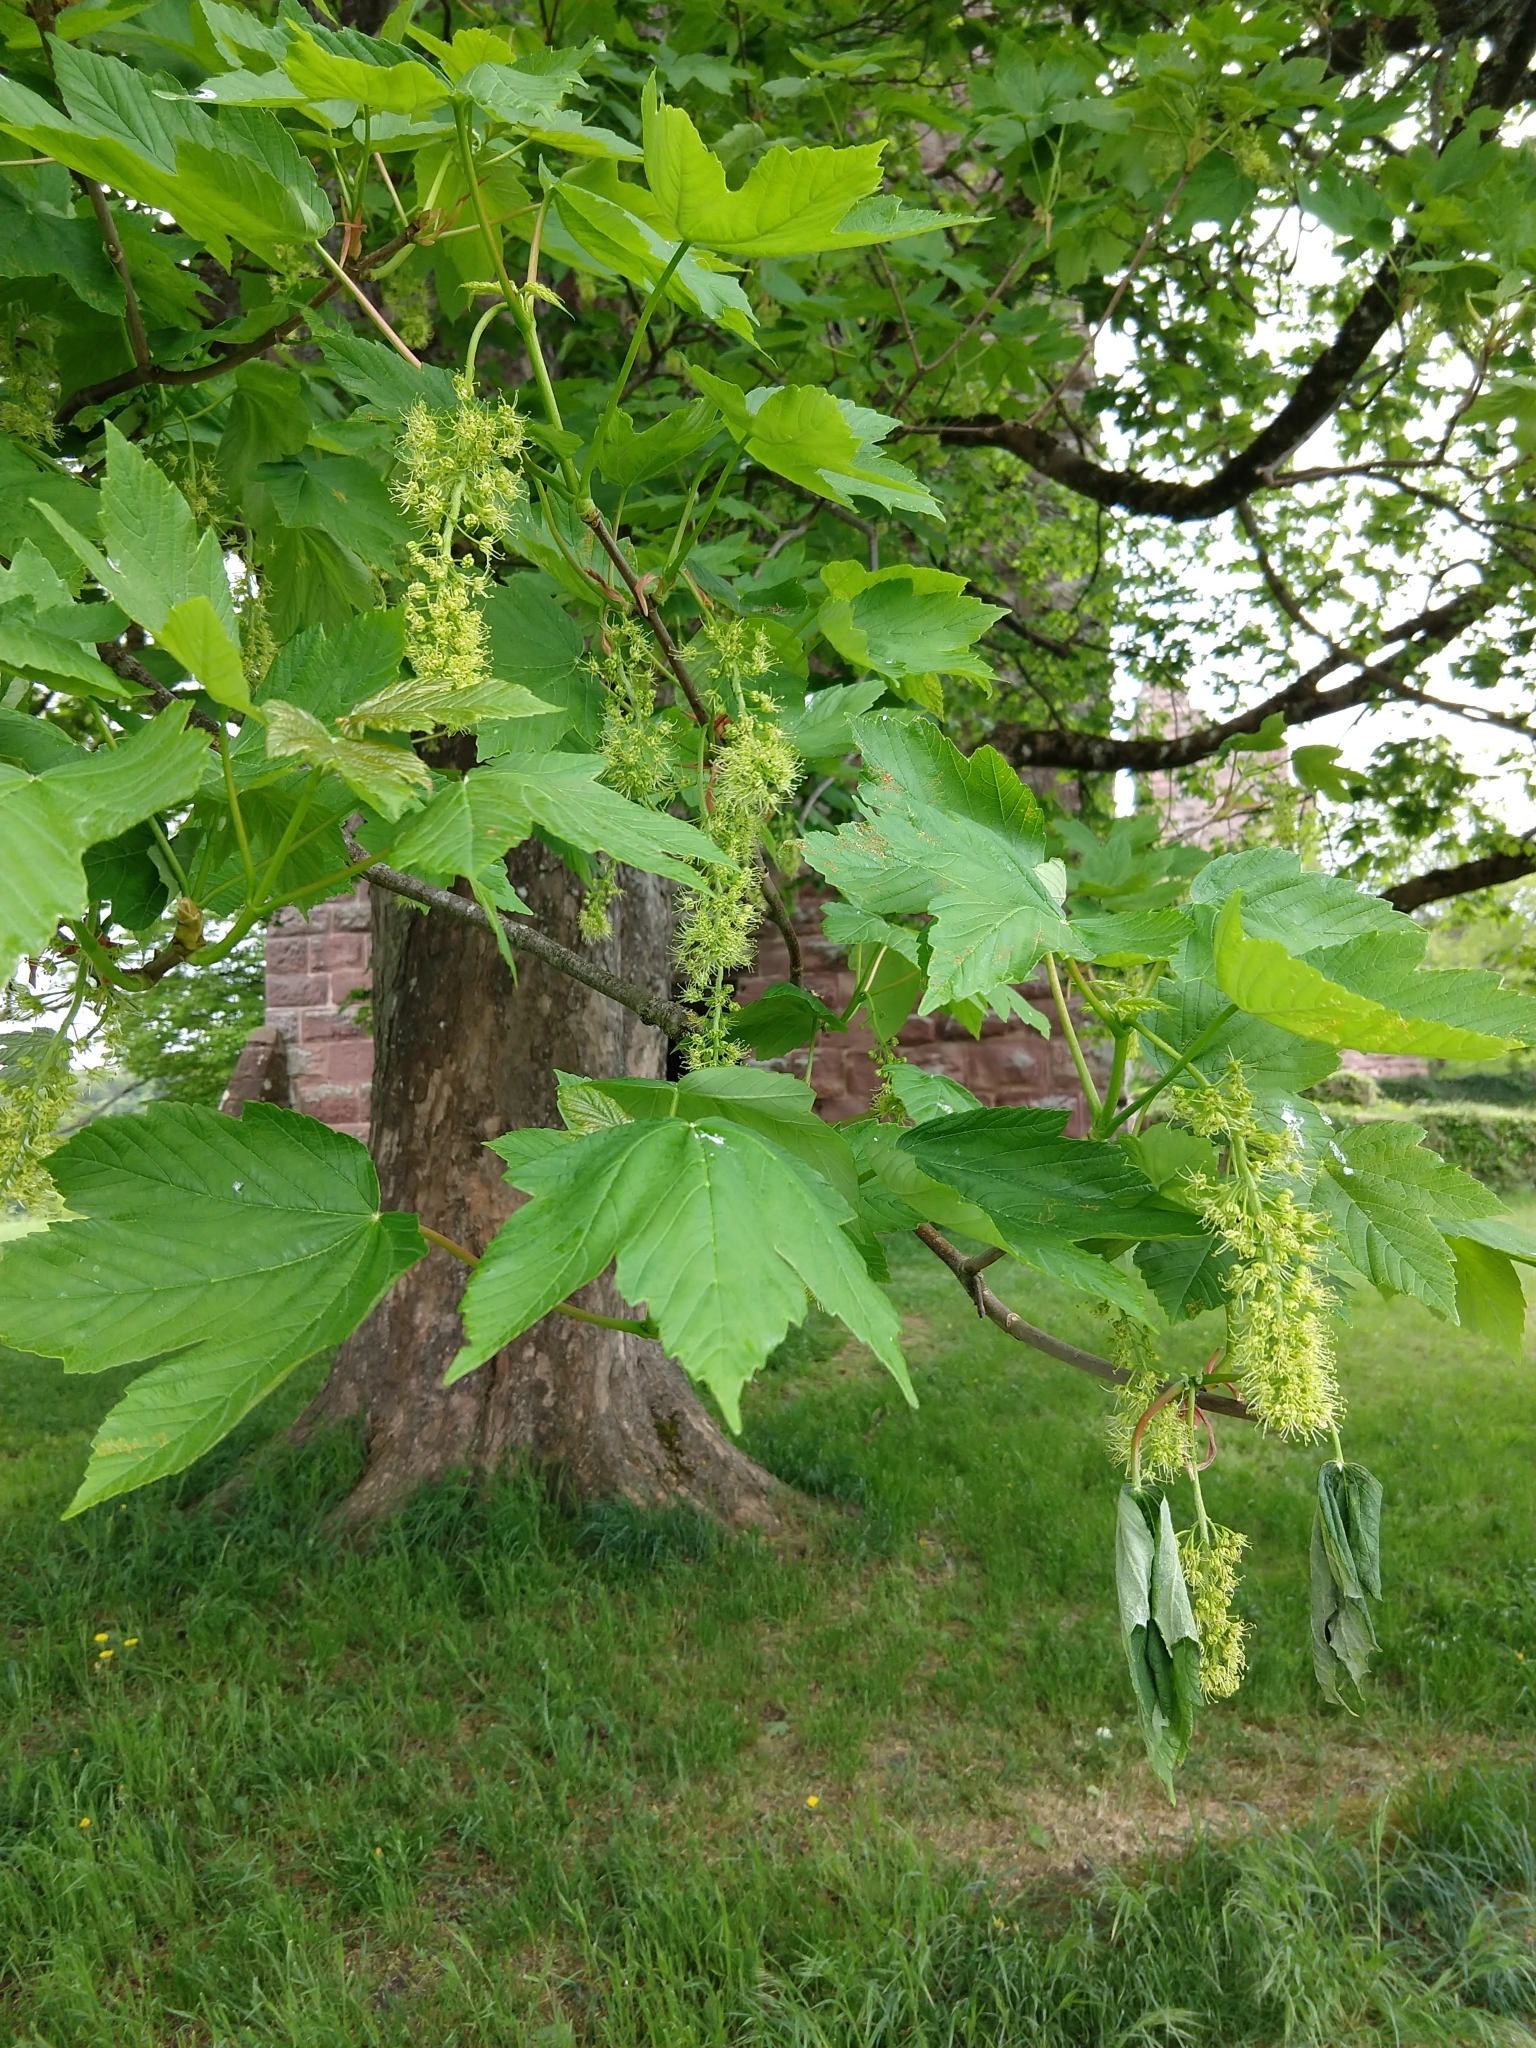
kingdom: Plantae
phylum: Tracheophyta
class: Magnoliopsida
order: Sapindales
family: Sapindaceae
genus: Acer
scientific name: Acer pseudoplatanus
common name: Sycamore
